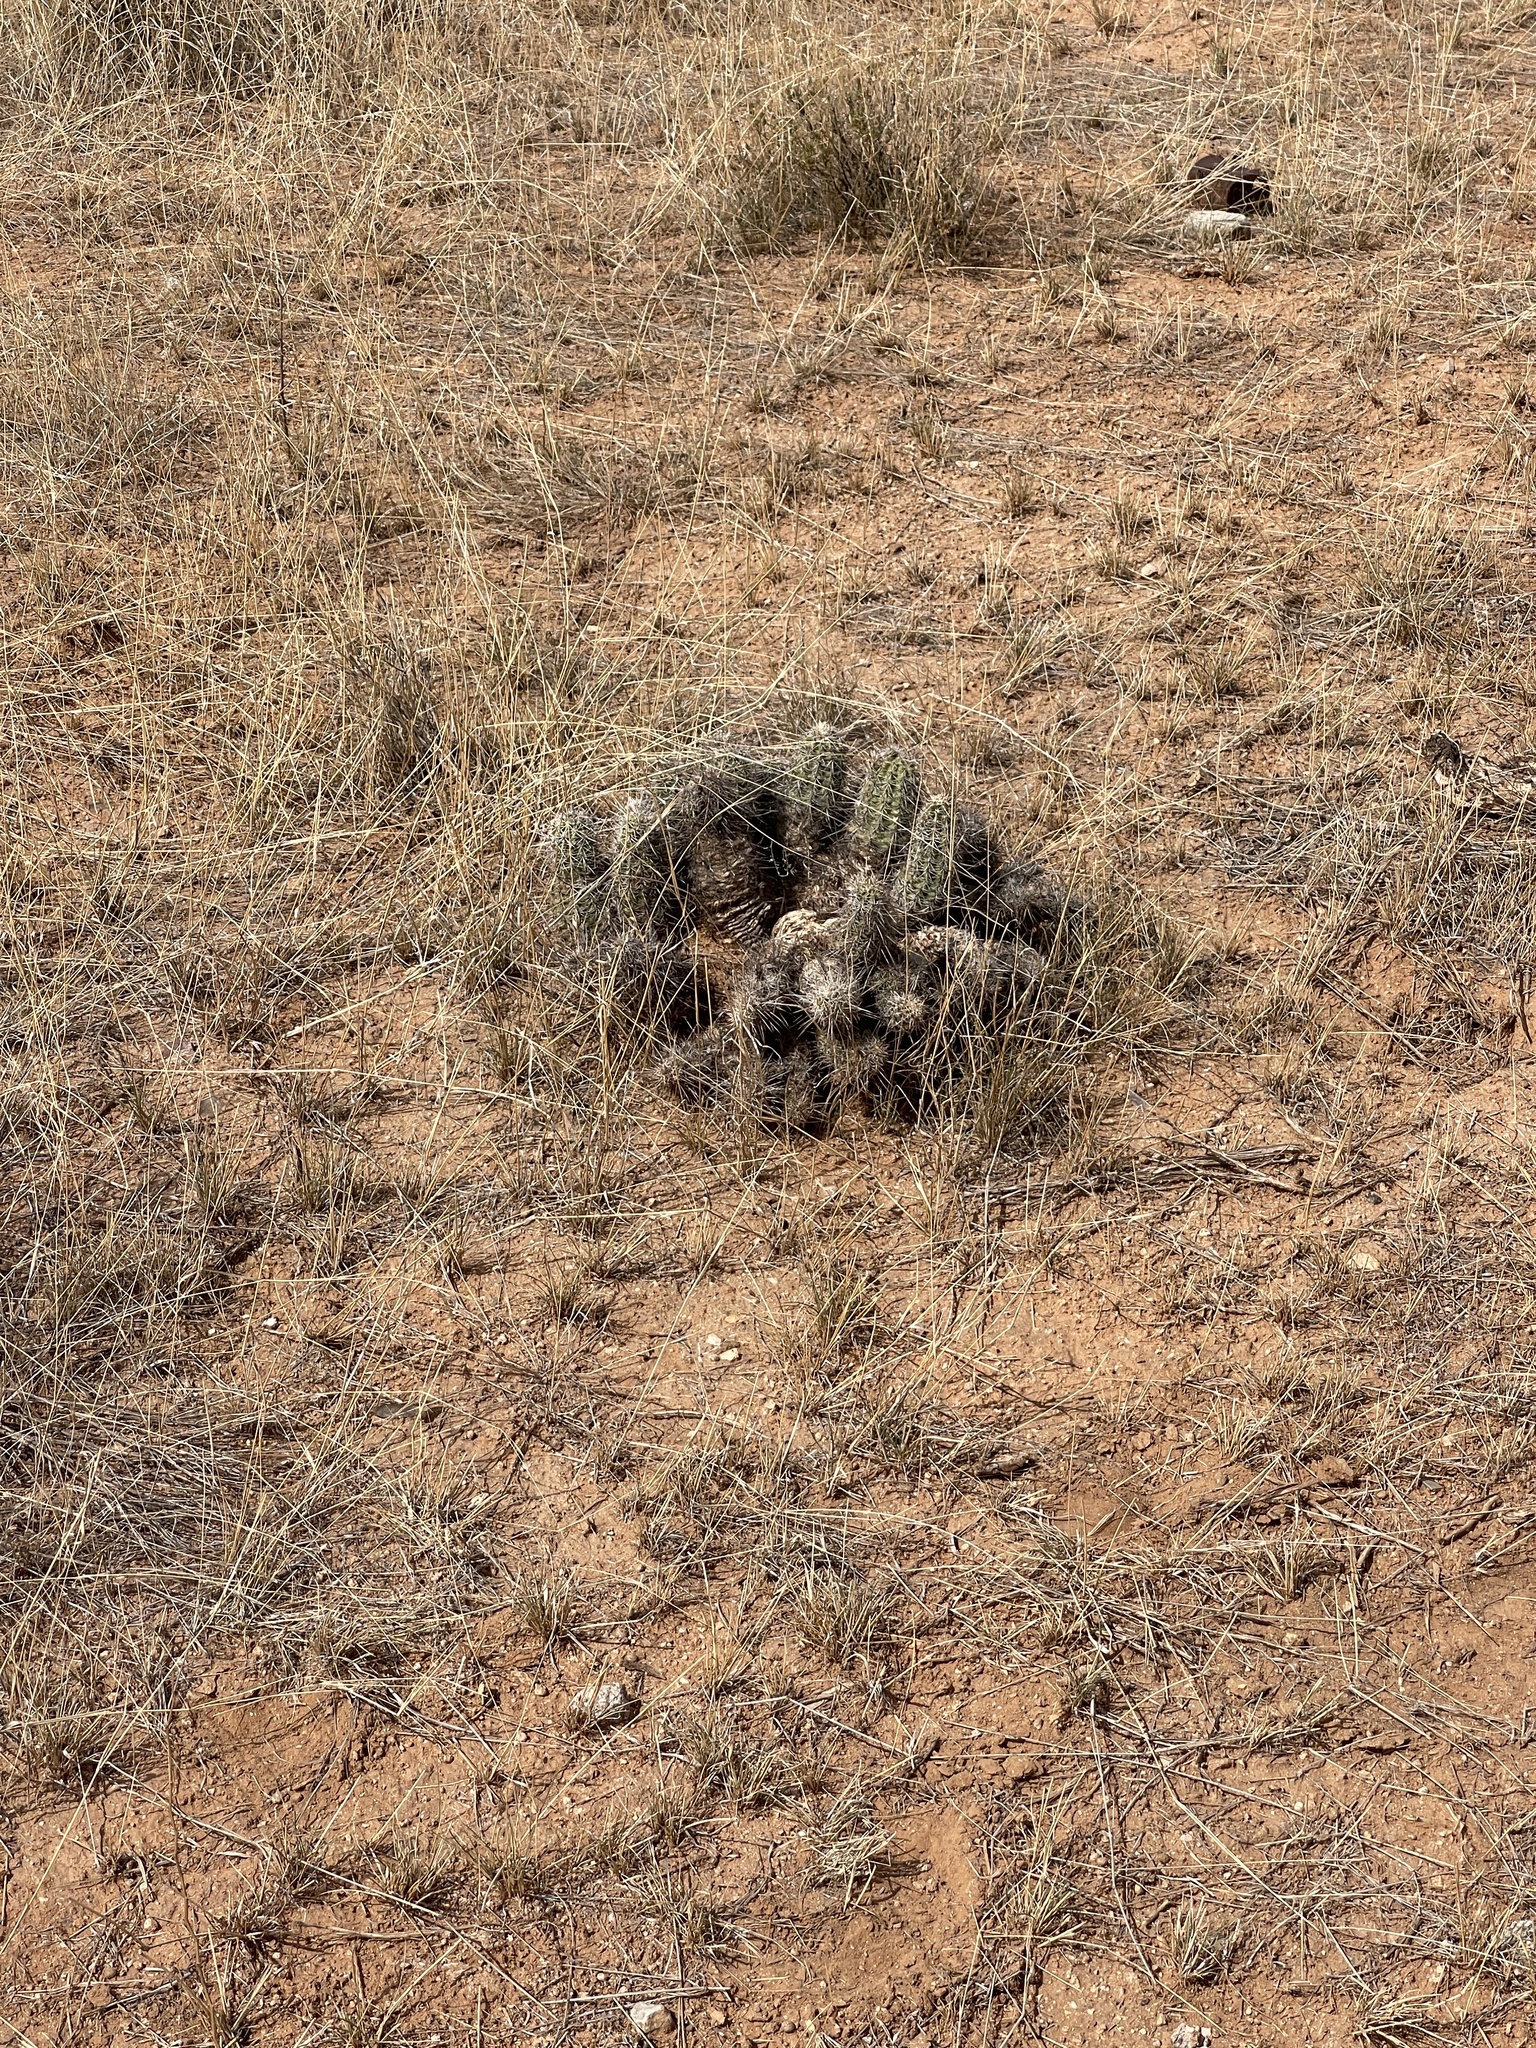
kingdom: Plantae
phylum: Tracheophyta
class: Magnoliopsida
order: Caryophyllales
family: Cactaceae
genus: Echinocereus
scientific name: Echinocereus fasciculatus
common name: Bundle hedgehog
